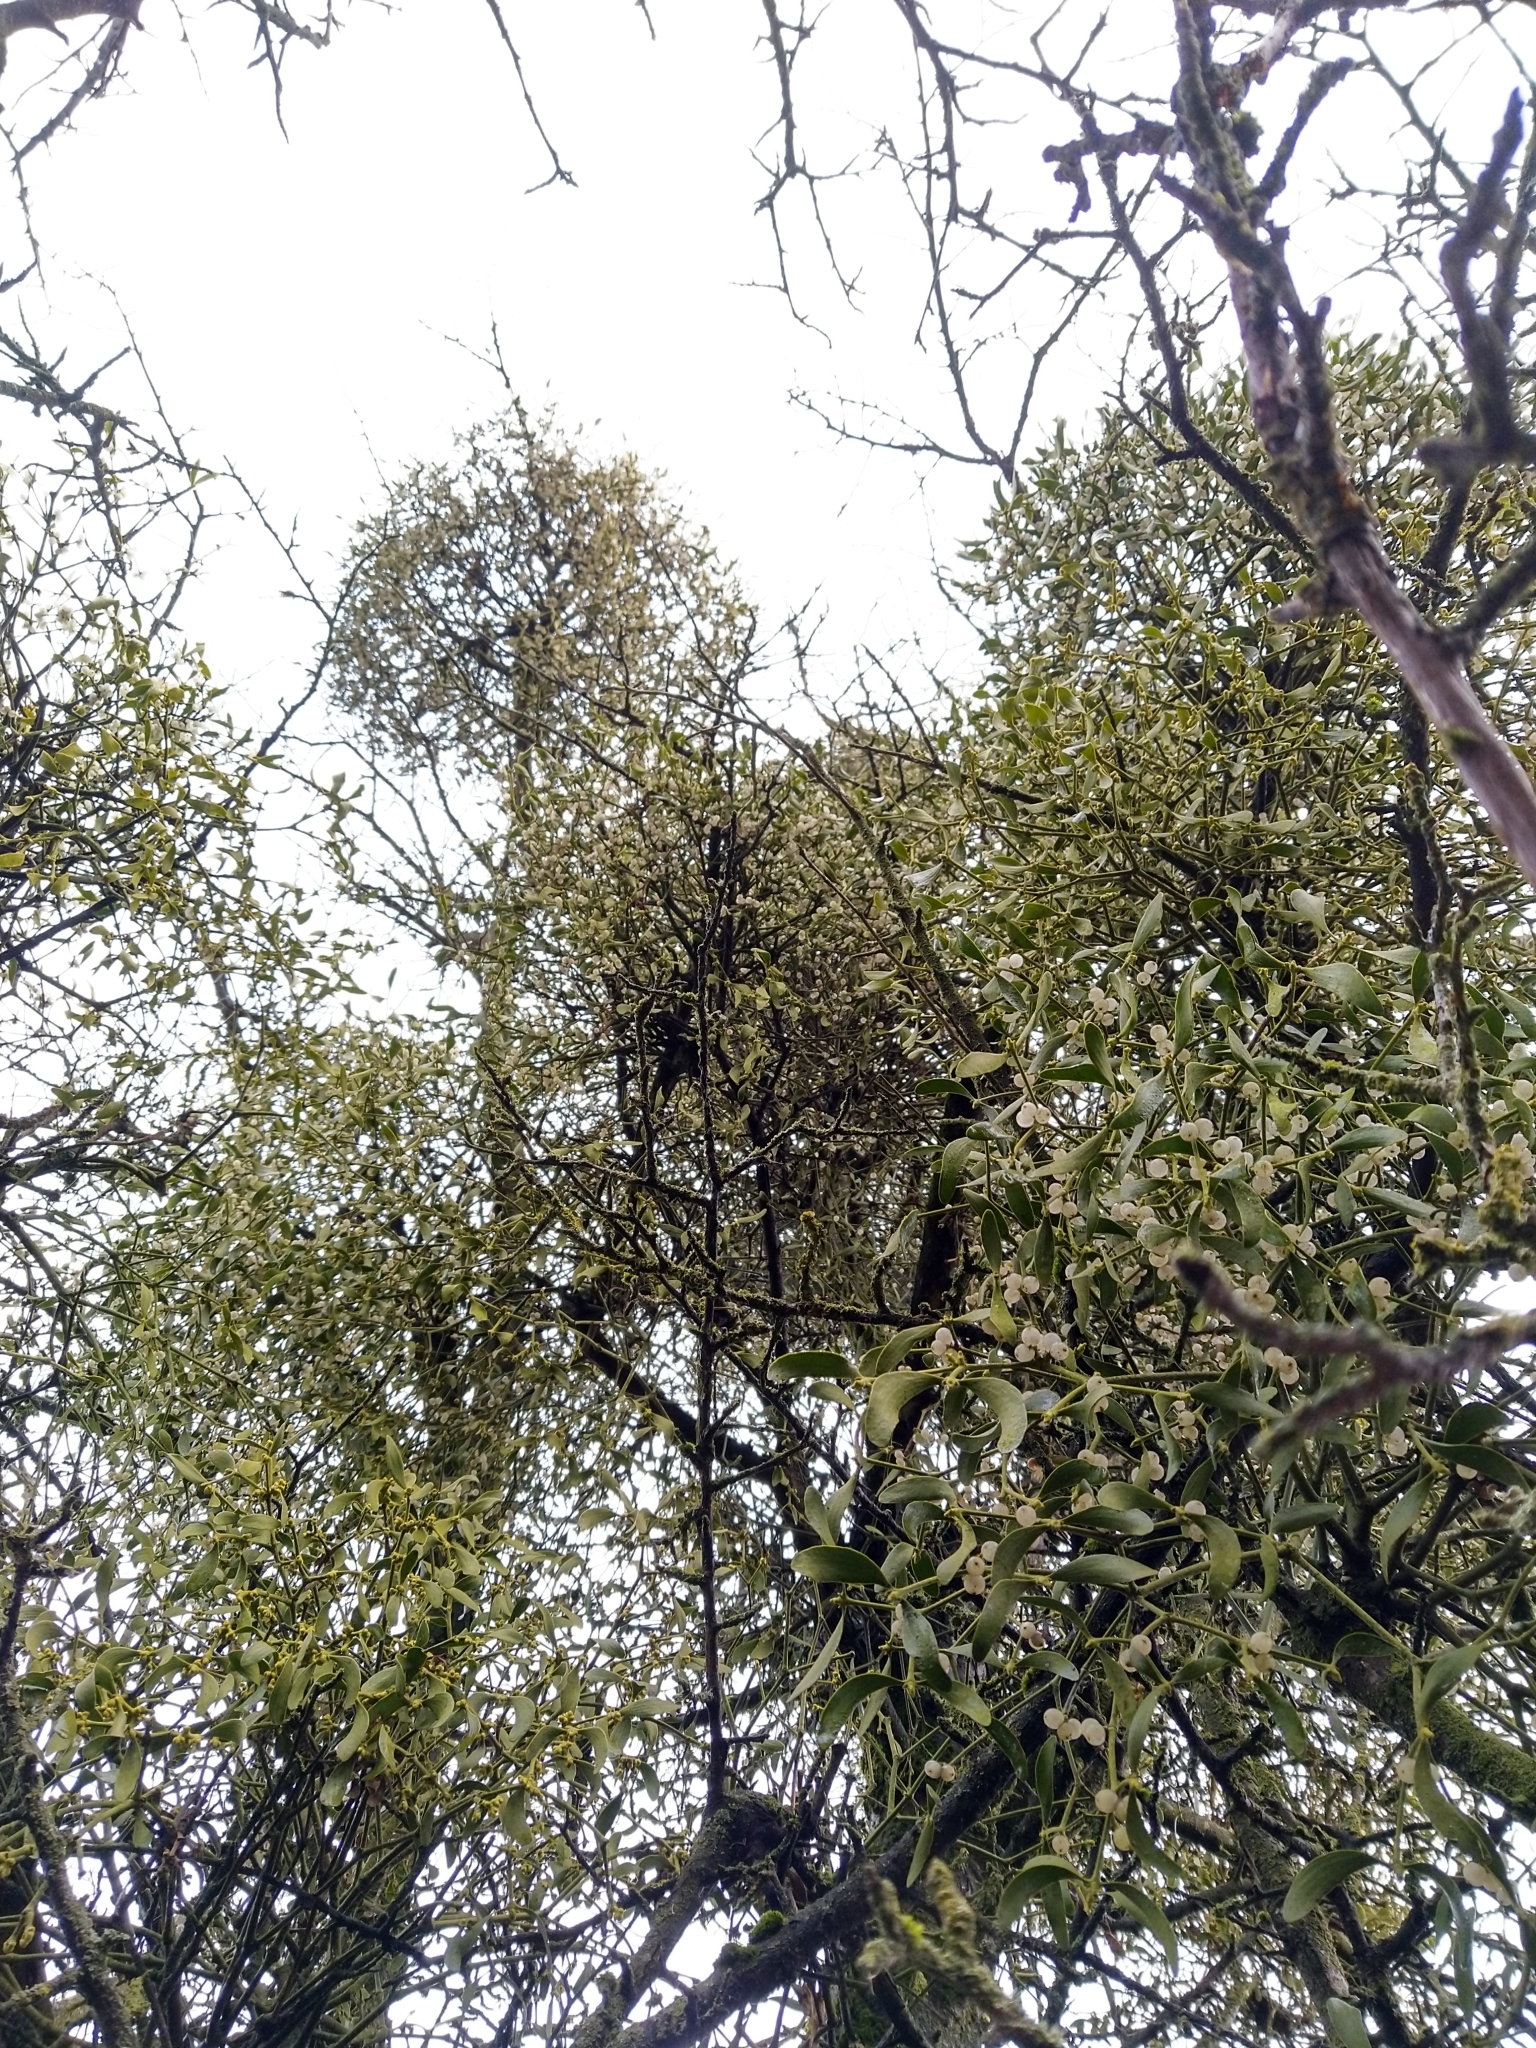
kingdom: Plantae
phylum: Tracheophyta
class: Magnoliopsida
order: Santalales
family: Viscaceae
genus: Viscum
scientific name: Viscum album
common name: Mistletoe
